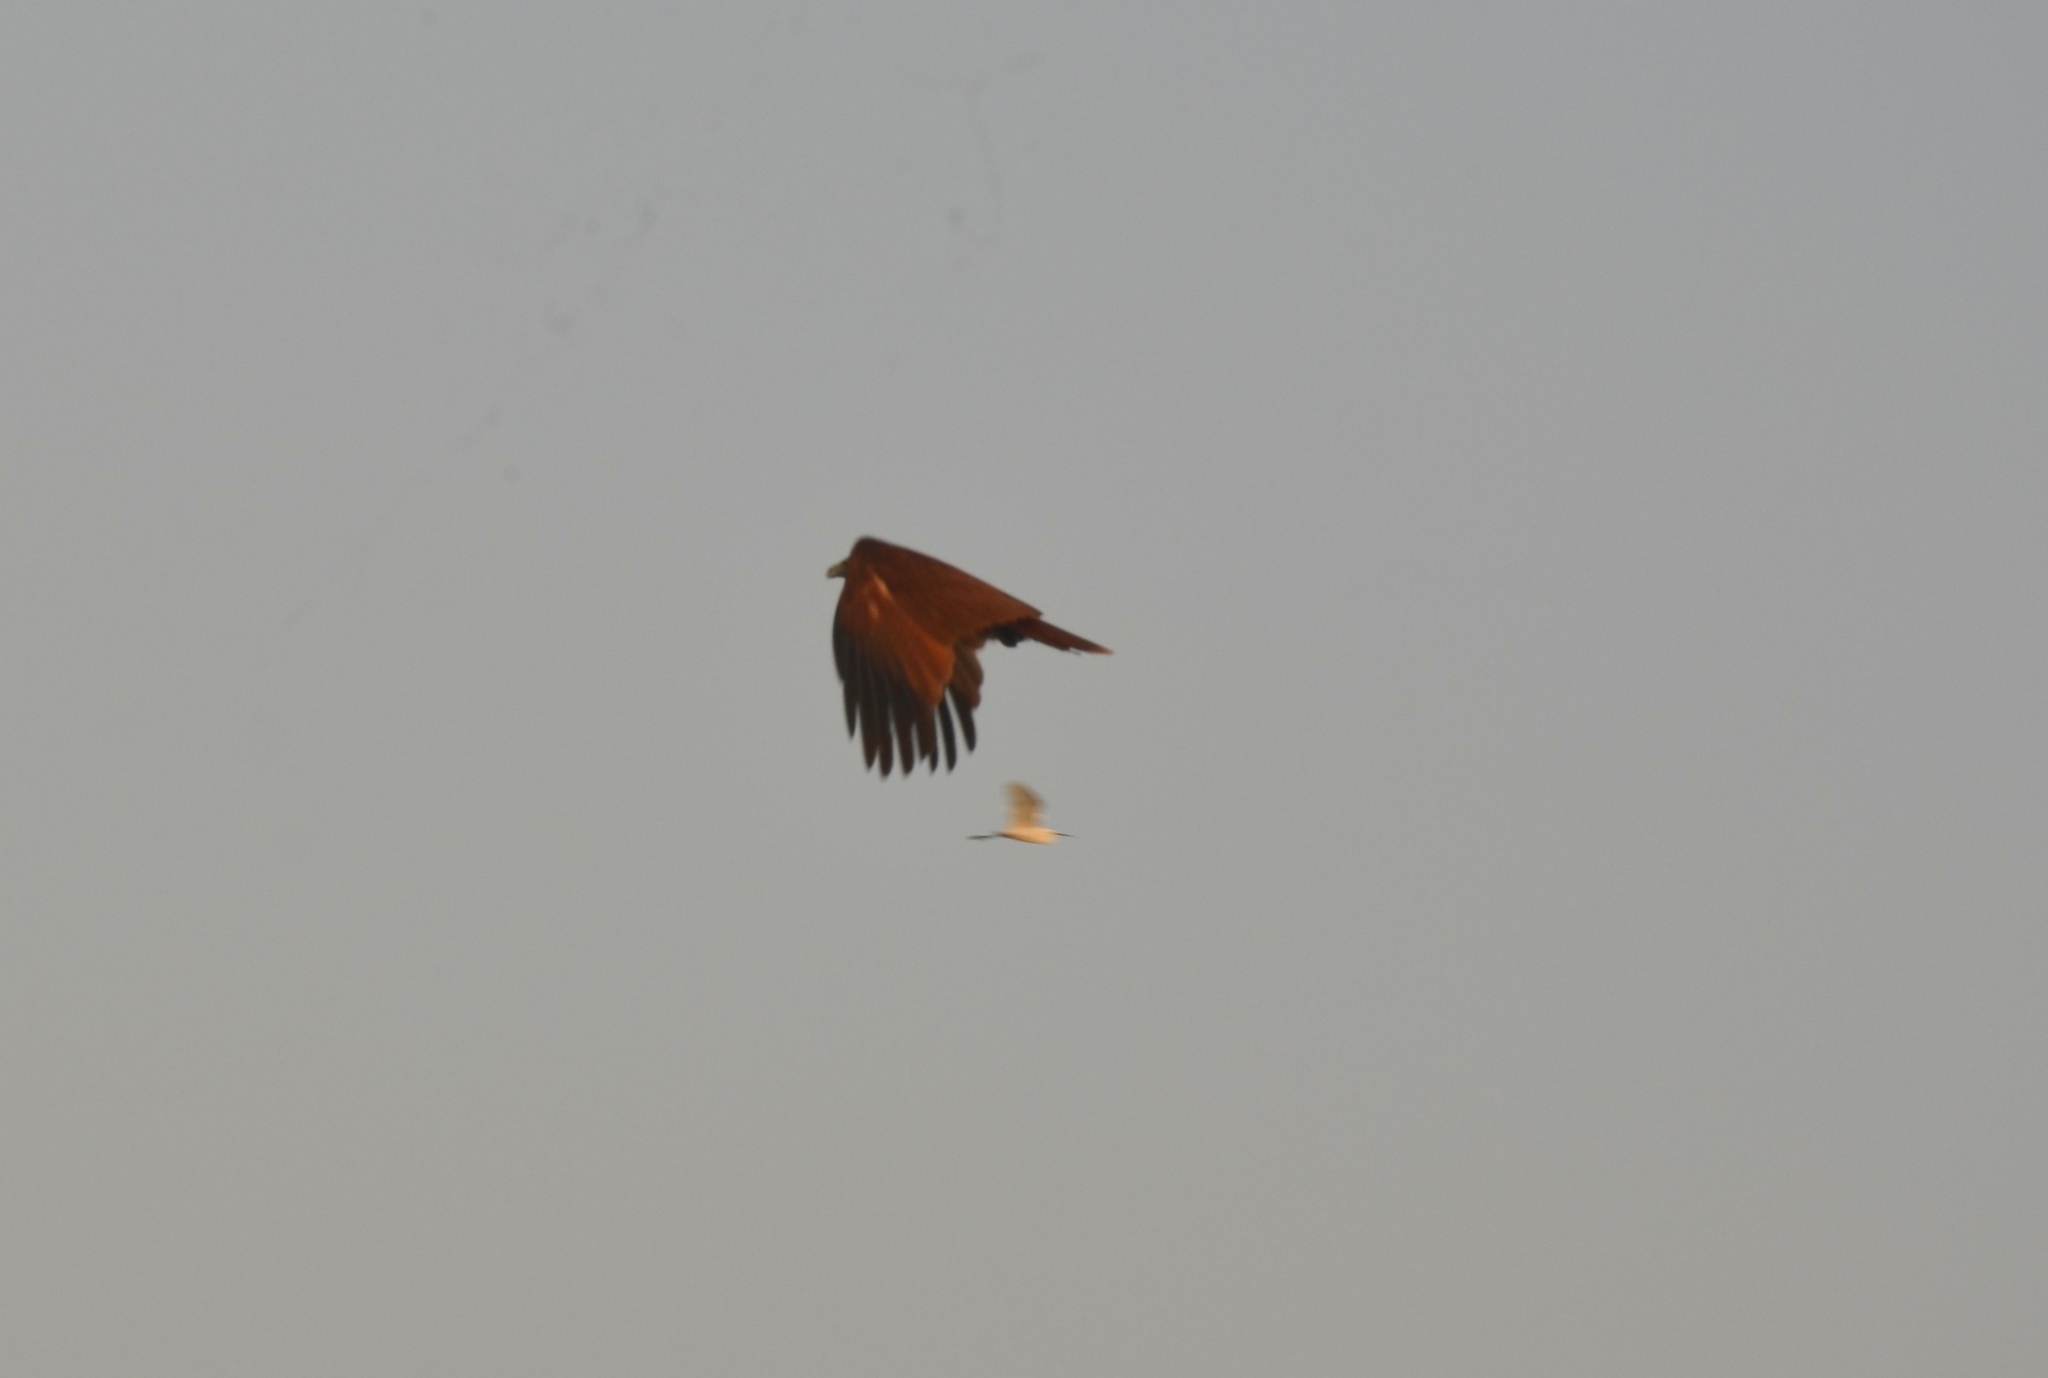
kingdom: Animalia
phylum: Chordata
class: Aves
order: Accipitriformes
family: Accipitridae
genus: Haliastur
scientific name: Haliastur indus
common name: Brahminy kite
